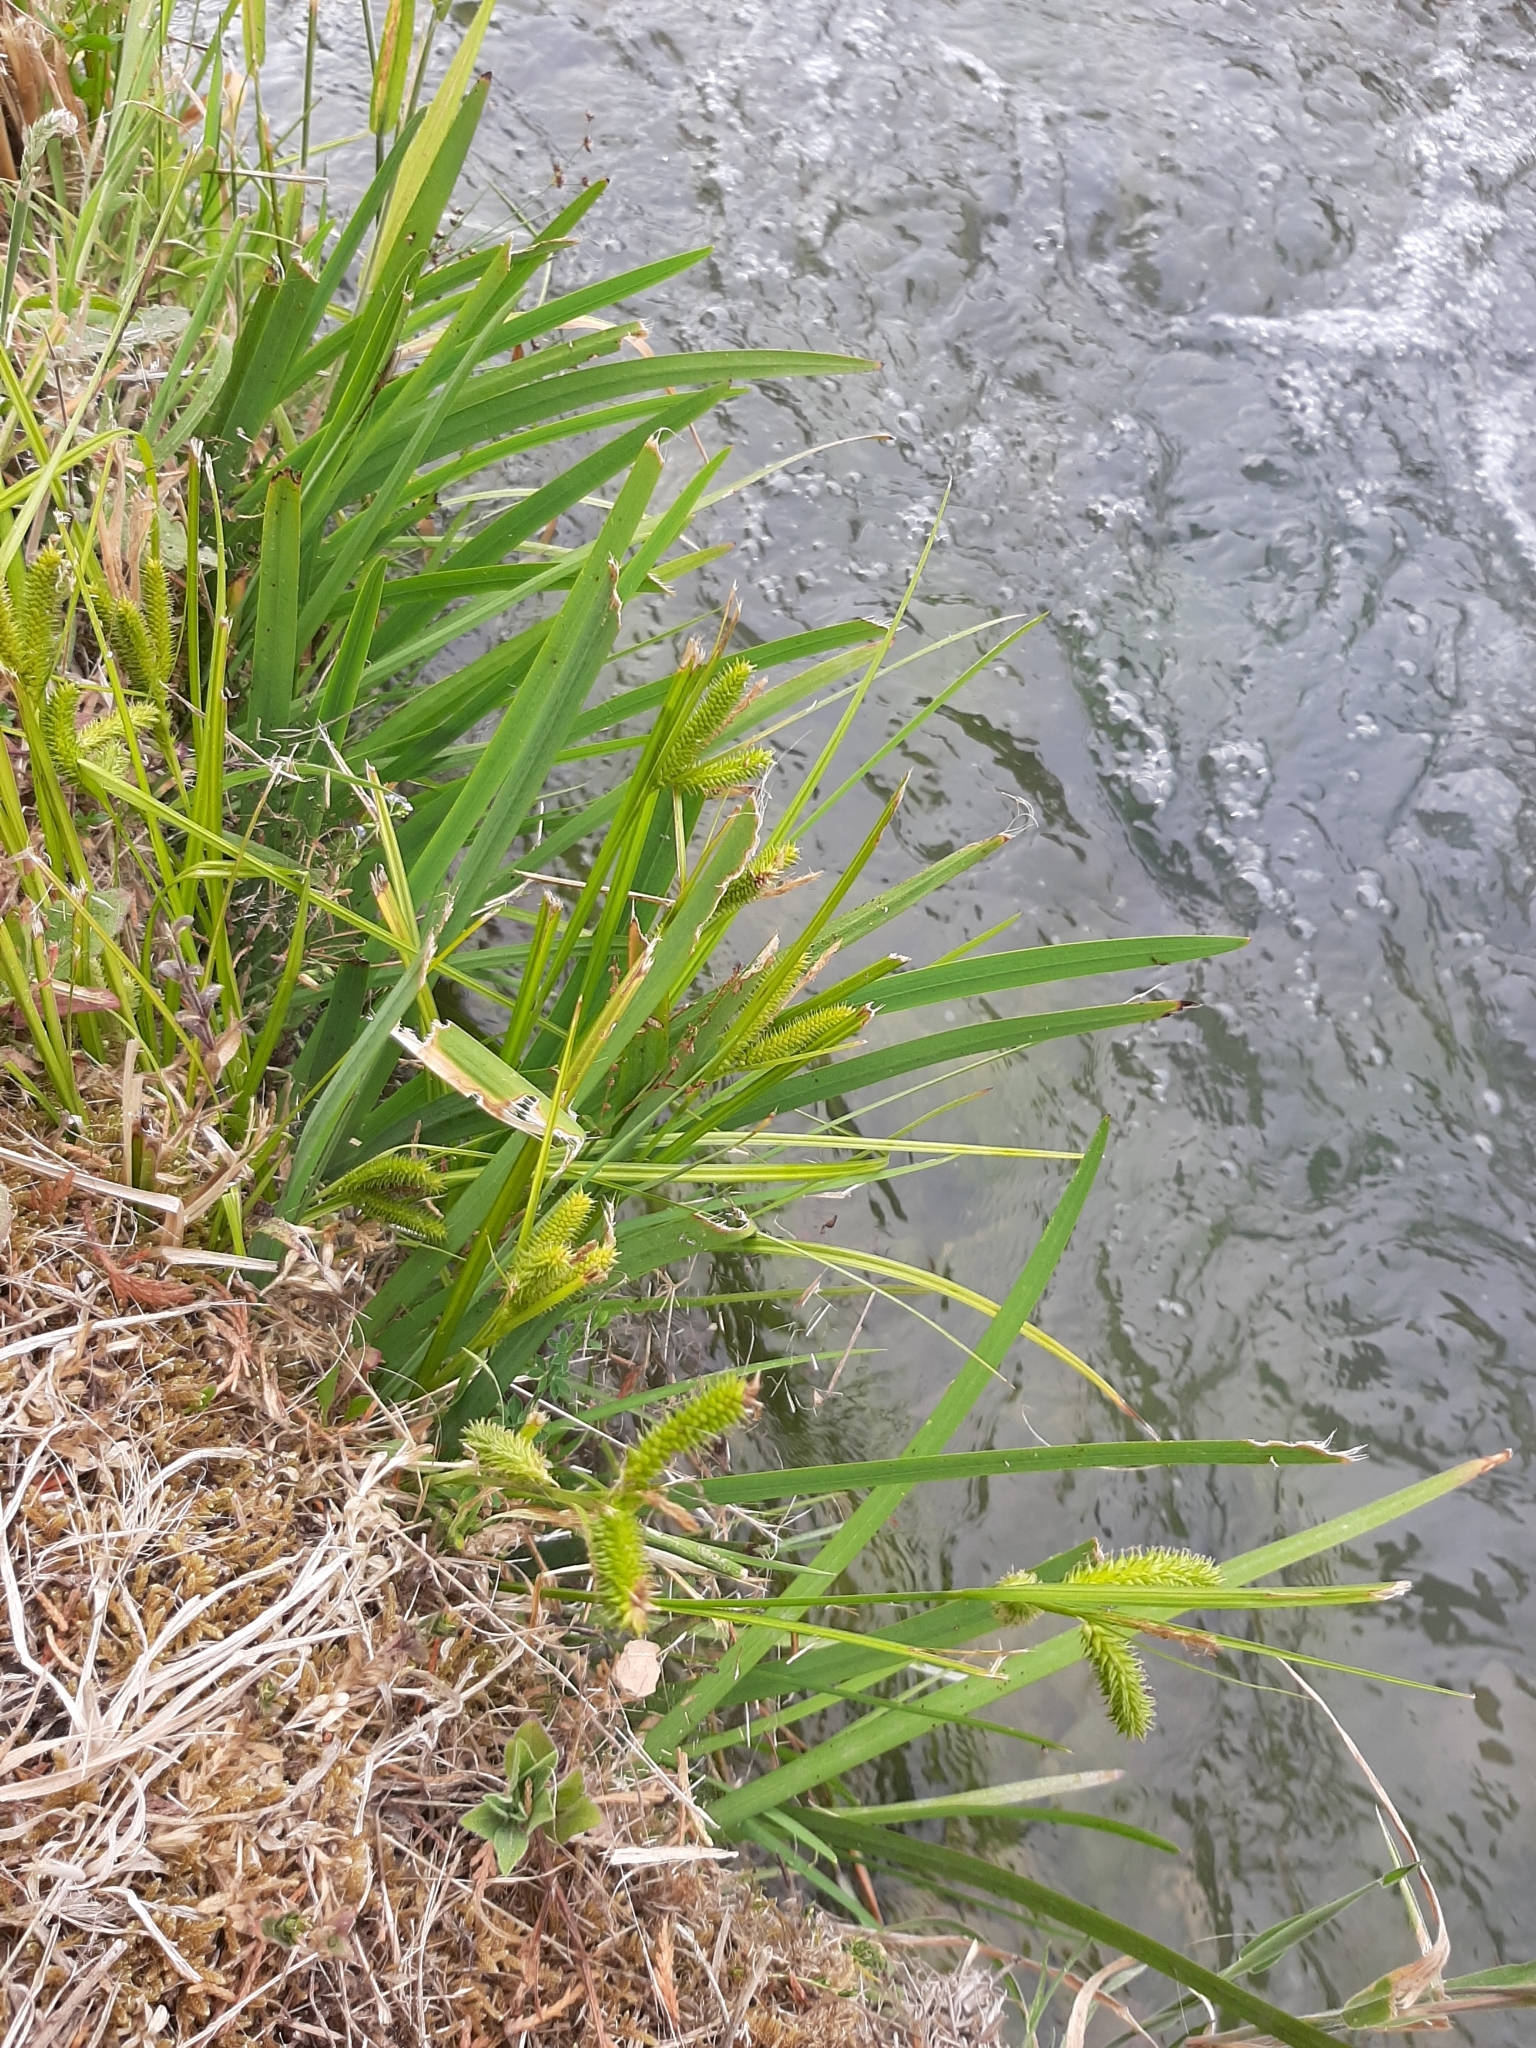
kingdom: Plantae
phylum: Tracheophyta
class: Liliopsida
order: Poales
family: Cyperaceae
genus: Carex
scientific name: Carex maorica
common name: Maori sedge
